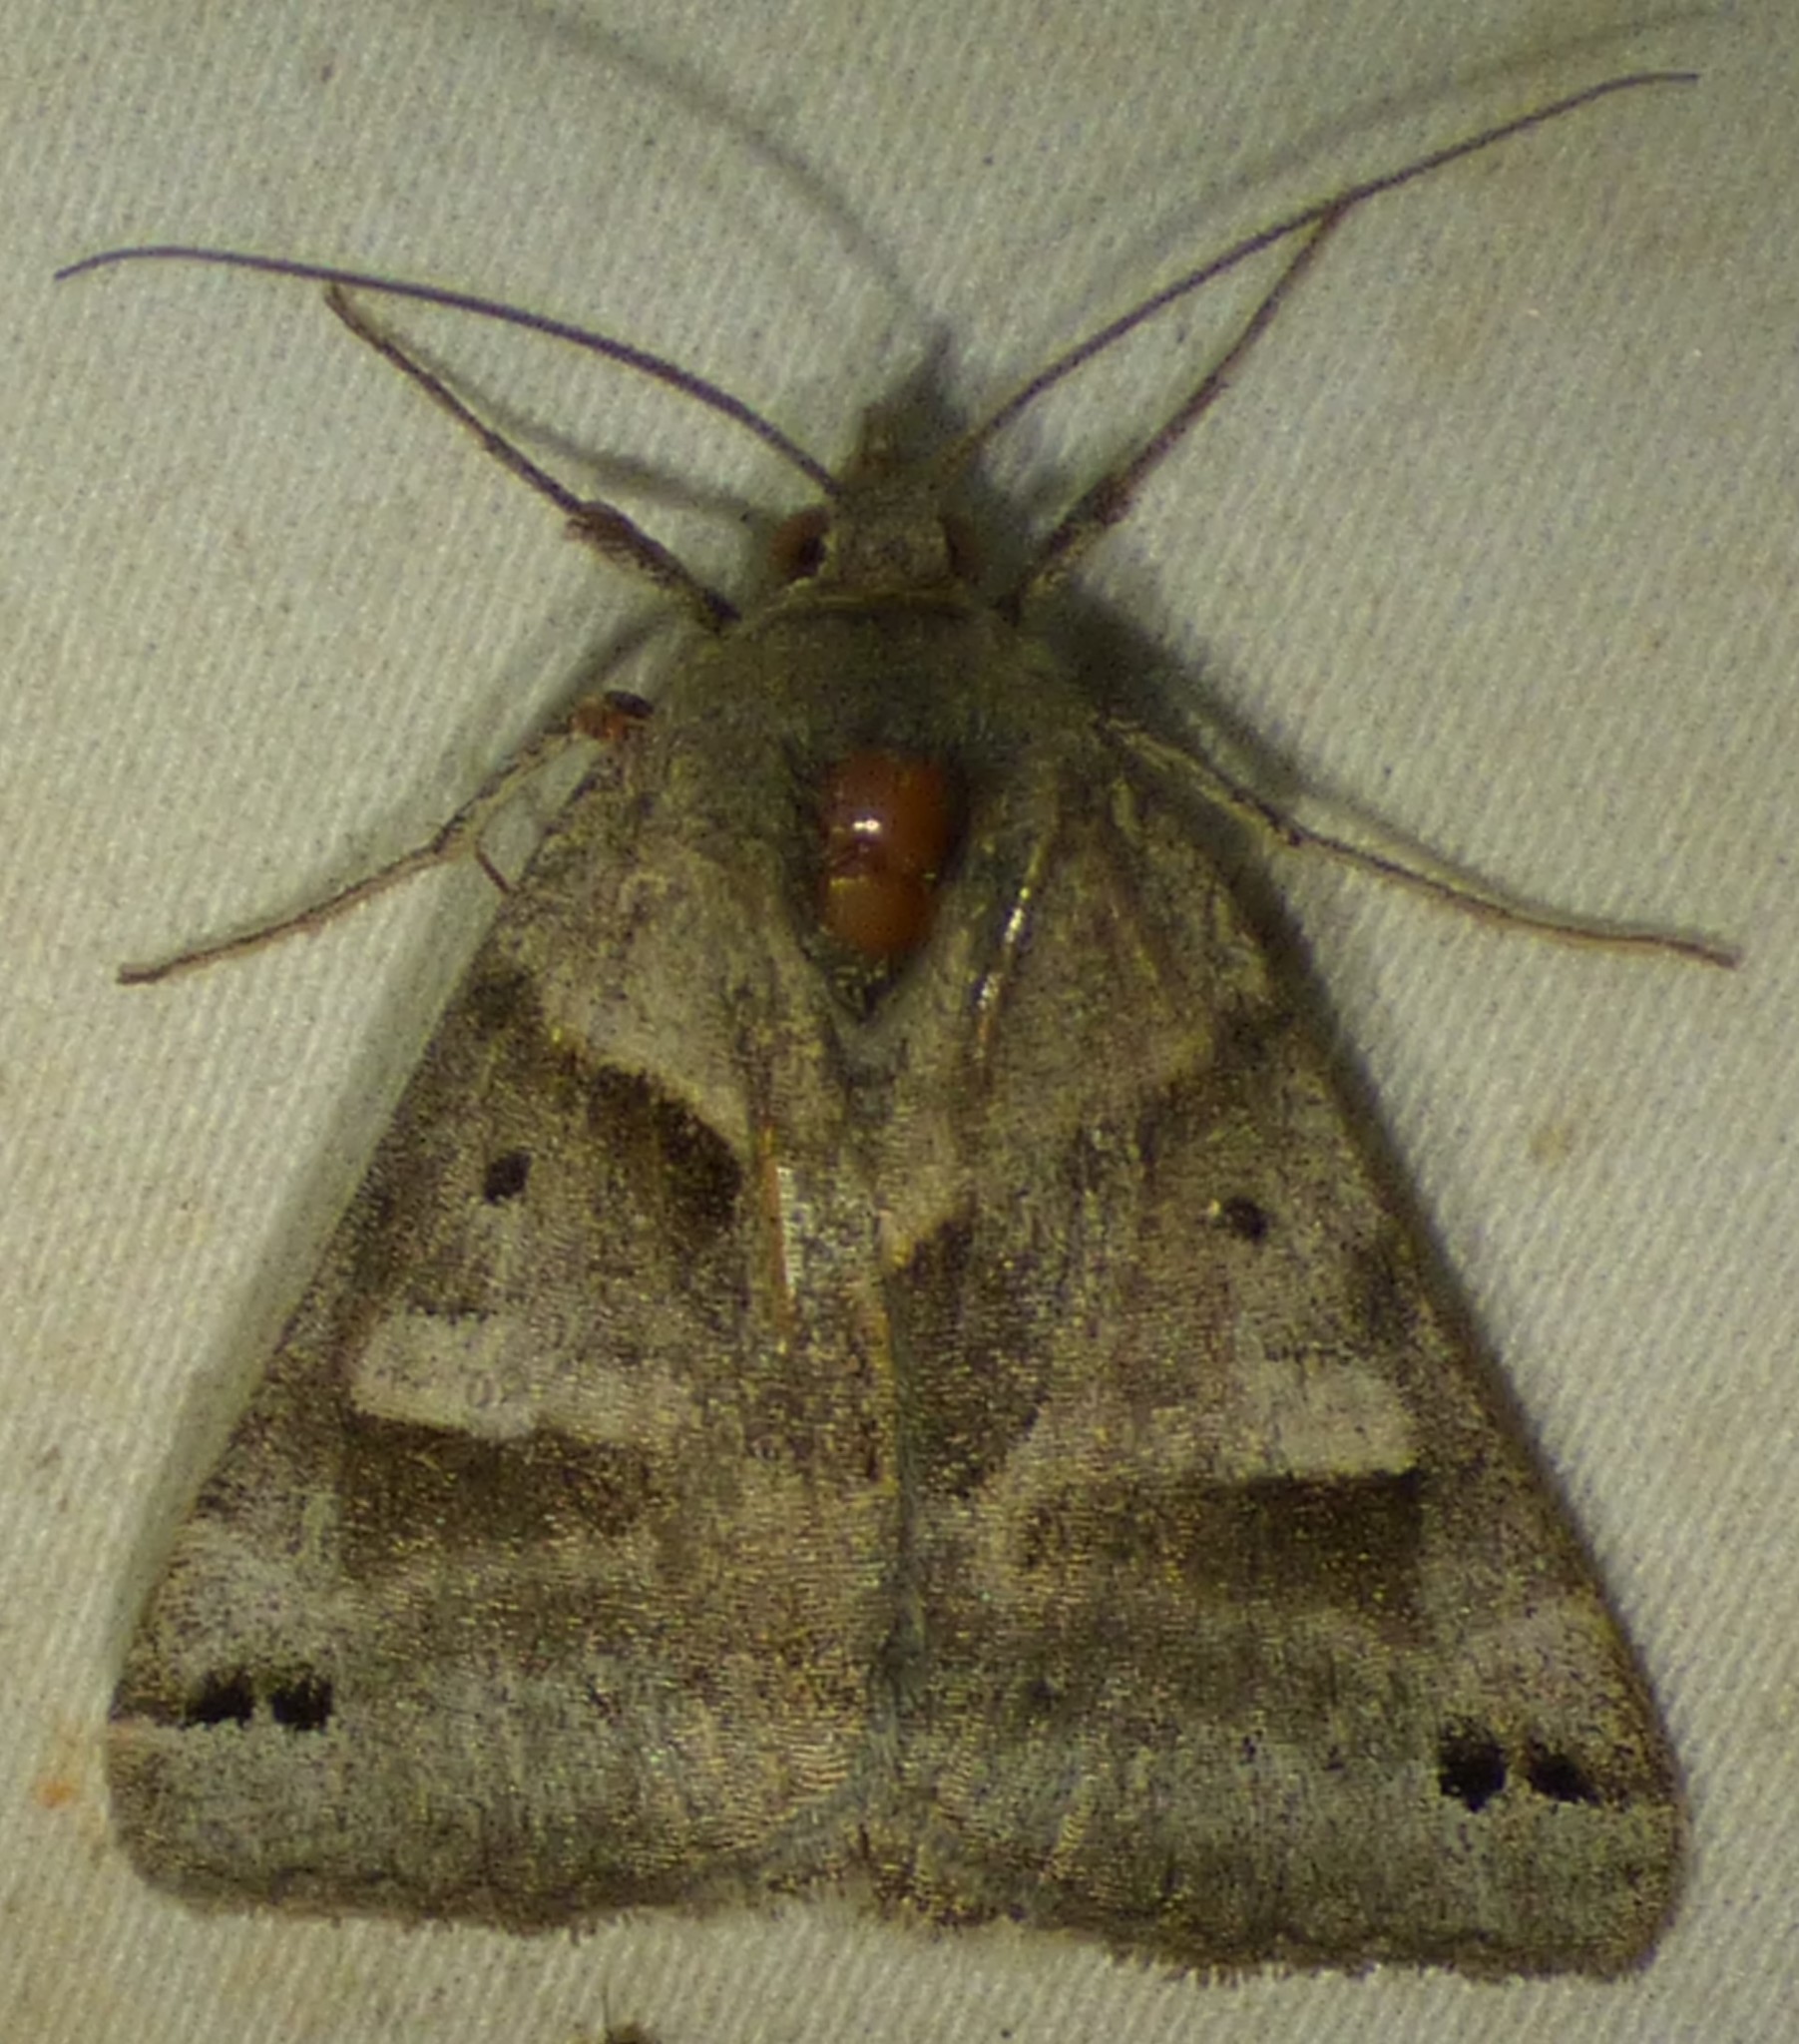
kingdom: Animalia
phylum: Arthropoda
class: Insecta
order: Lepidoptera
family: Erebidae
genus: Caenurgina
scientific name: Caenurgina erechtea
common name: Forage looper moth
